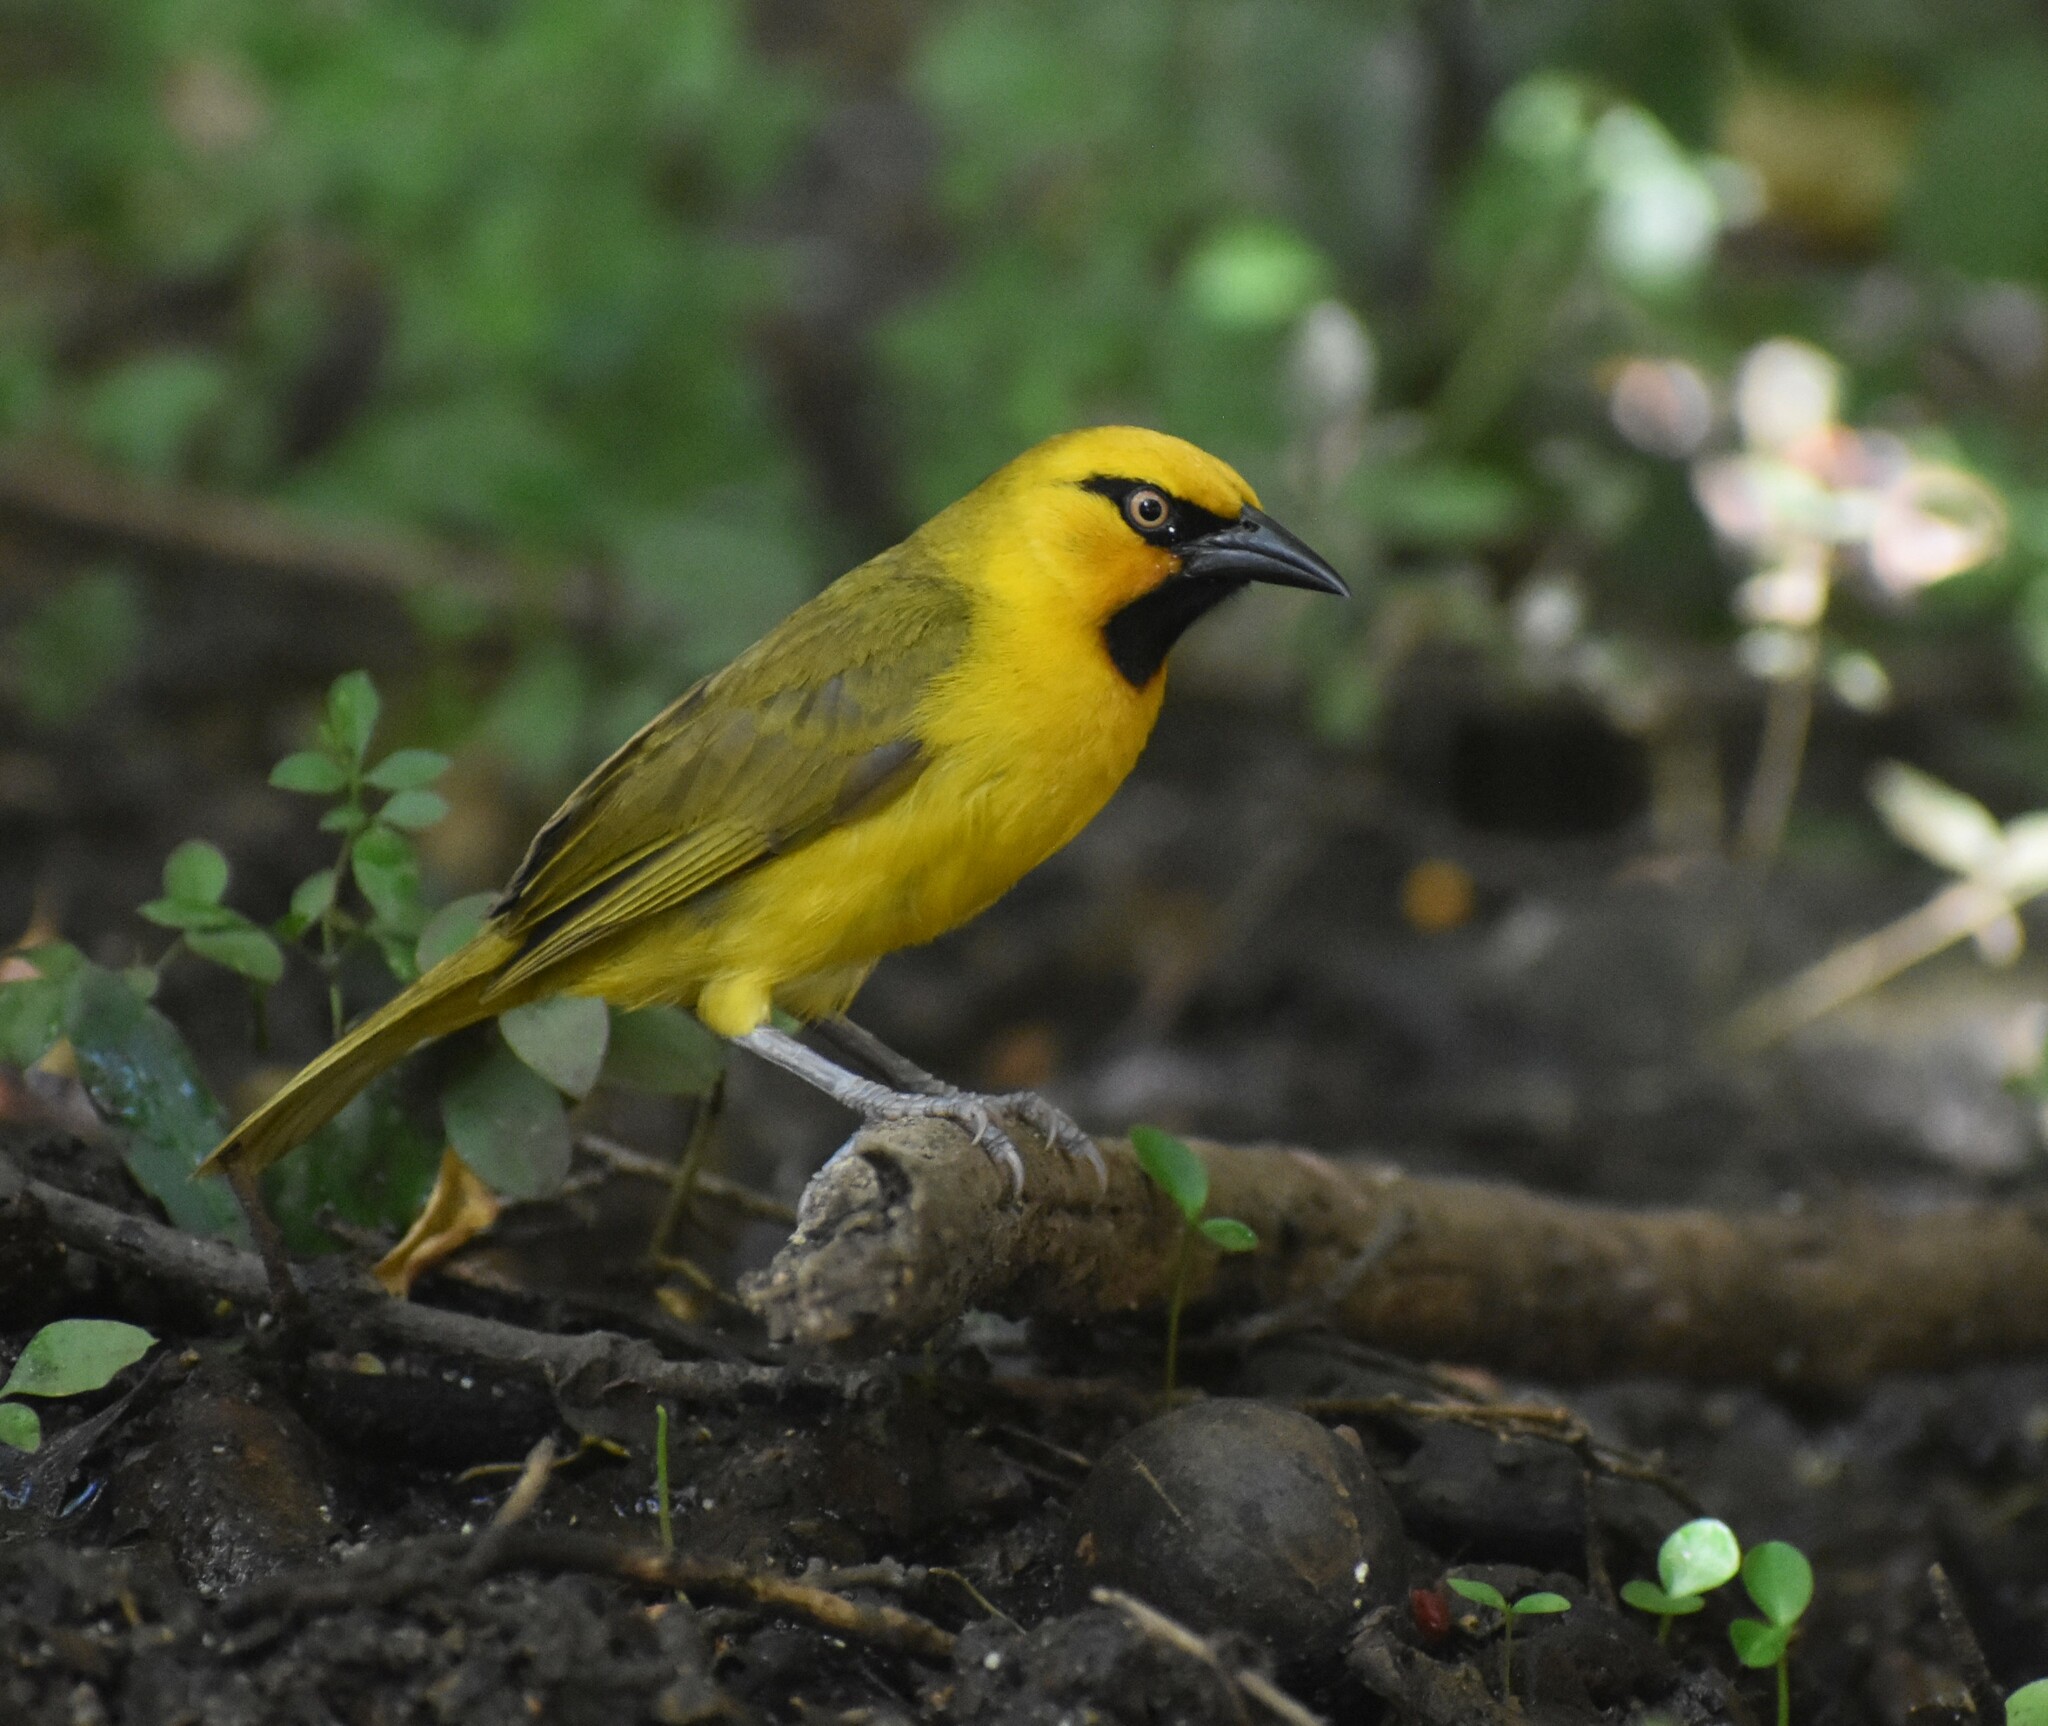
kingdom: Animalia
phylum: Chordata
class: Aves
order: Passeriformes
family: Ploceidae
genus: Ploceus
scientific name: Ploceus ocularis
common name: Spectacled weaver
